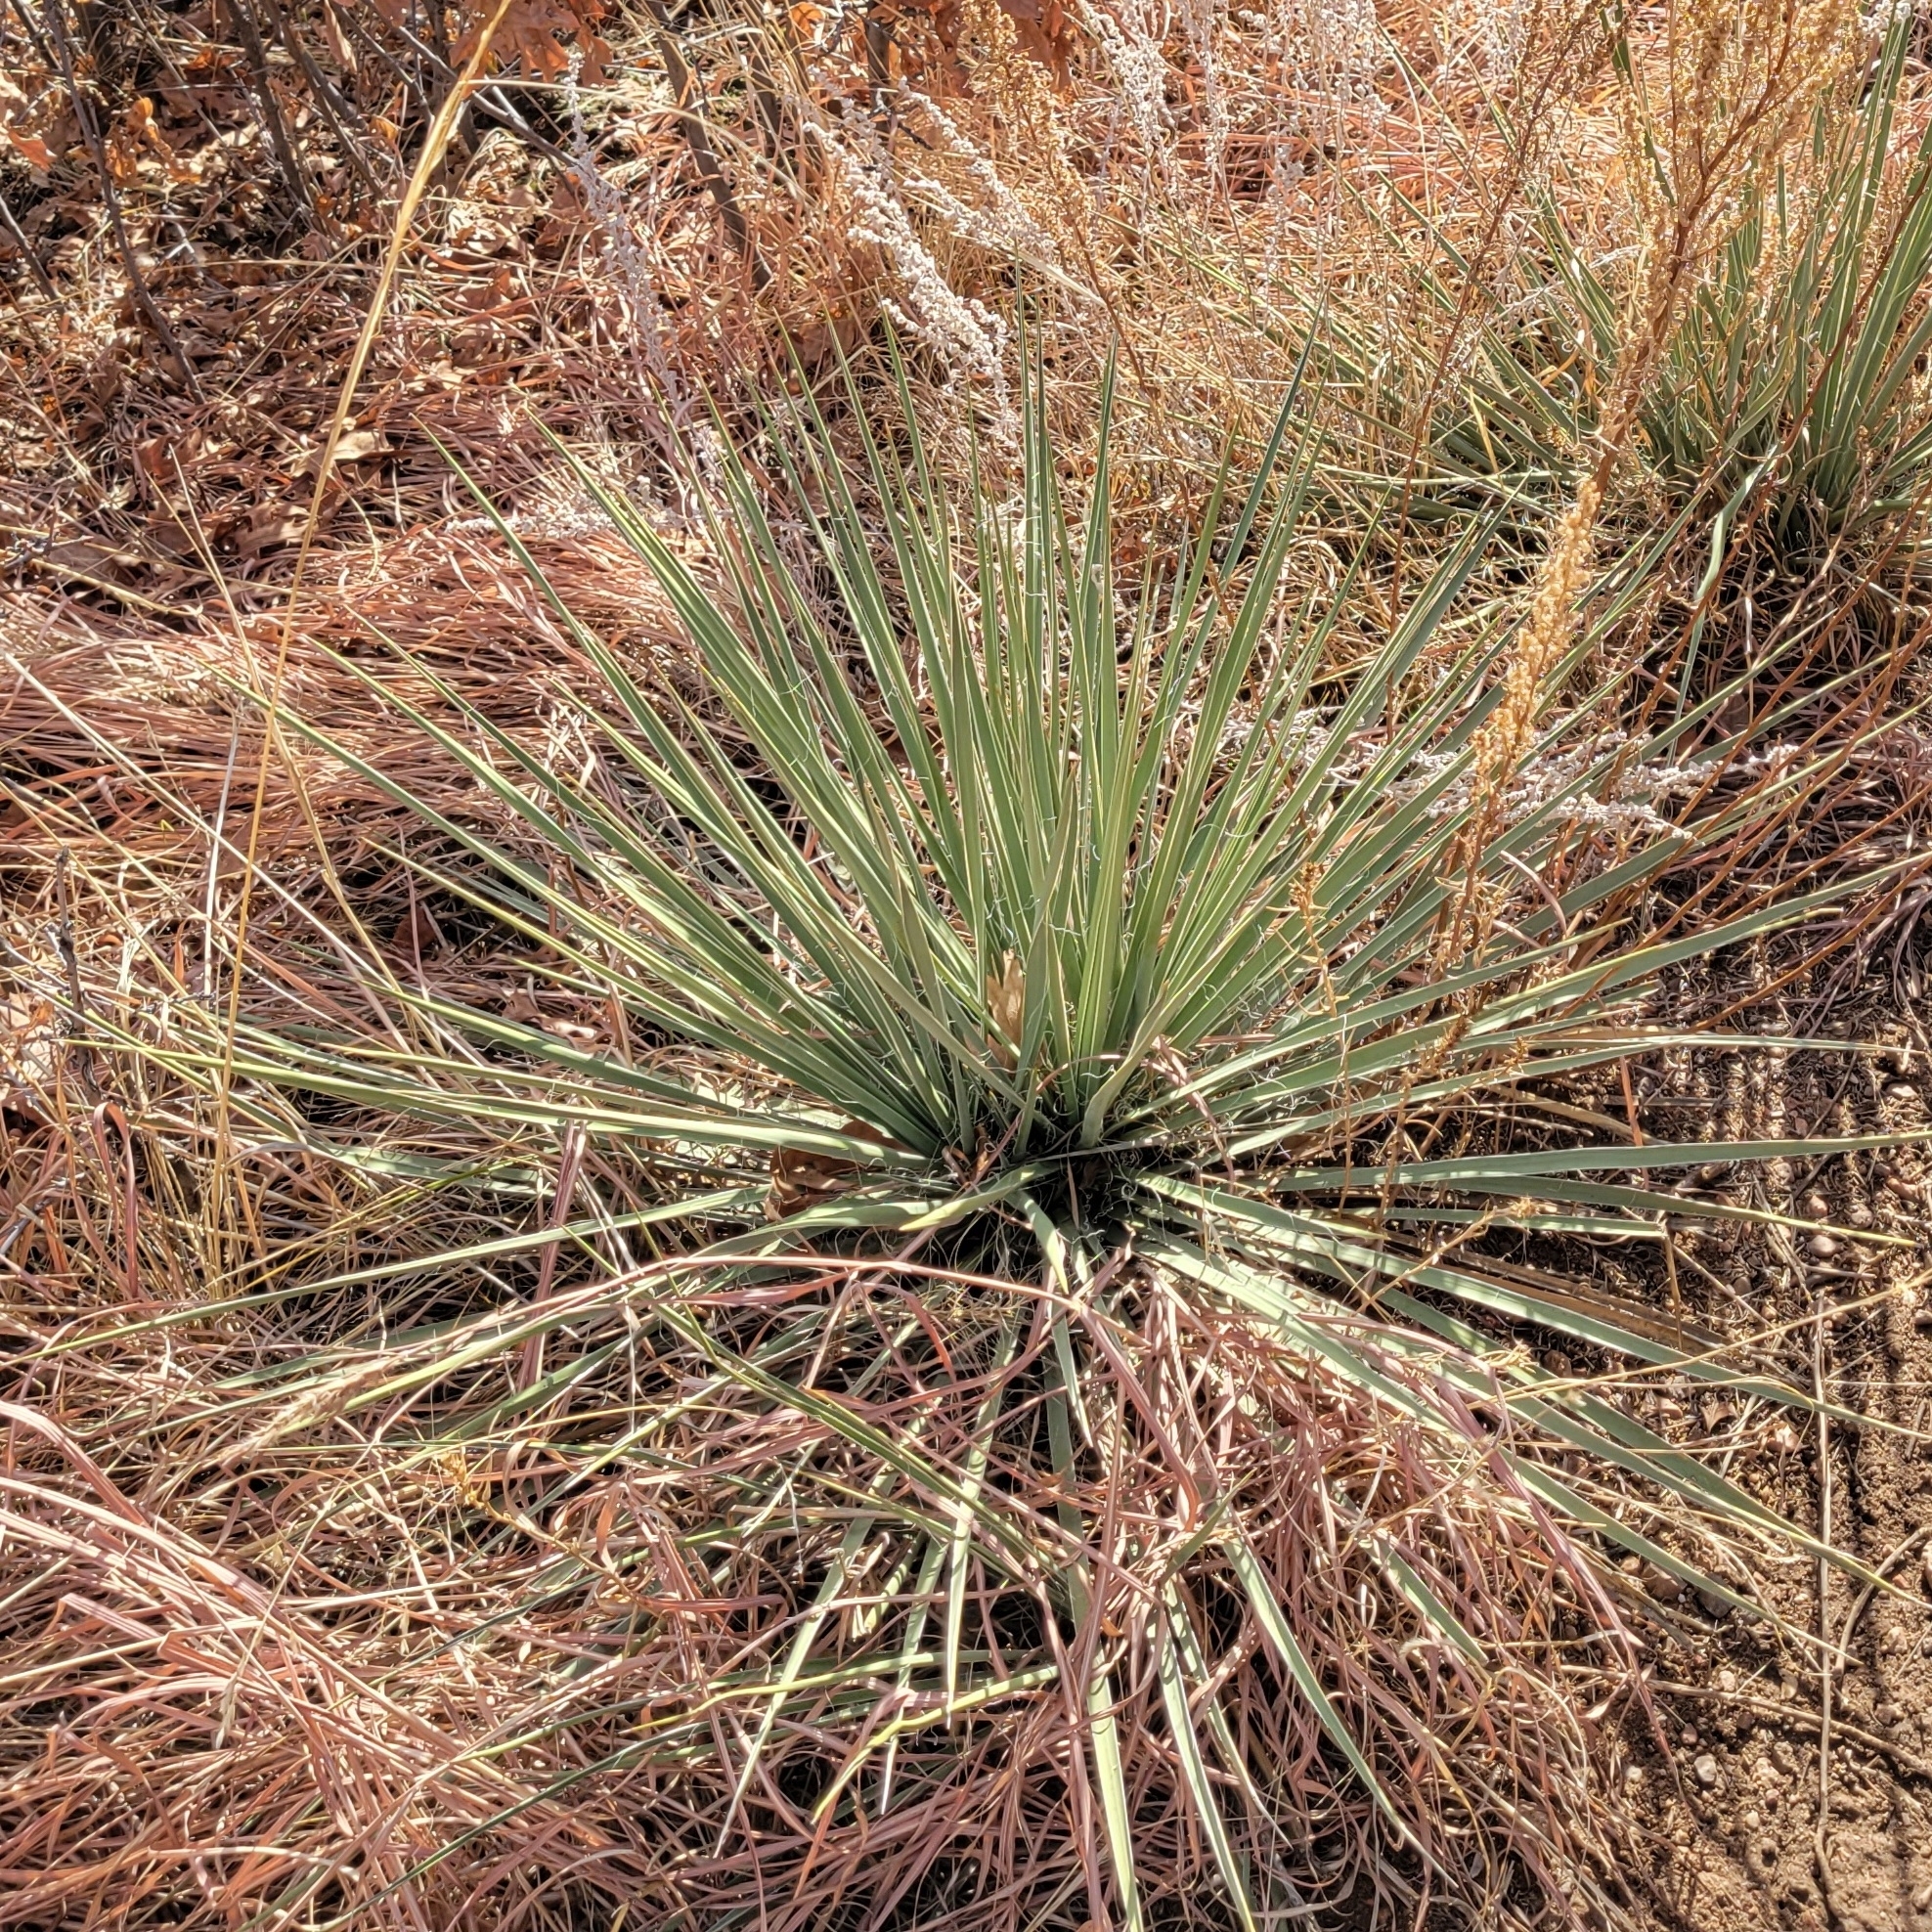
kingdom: Plantae
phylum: Tracheophyta
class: Liliopsida
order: Asparagales
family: Asparagaceae
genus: Yucca
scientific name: Yucca glauca
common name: Great plains yucca
